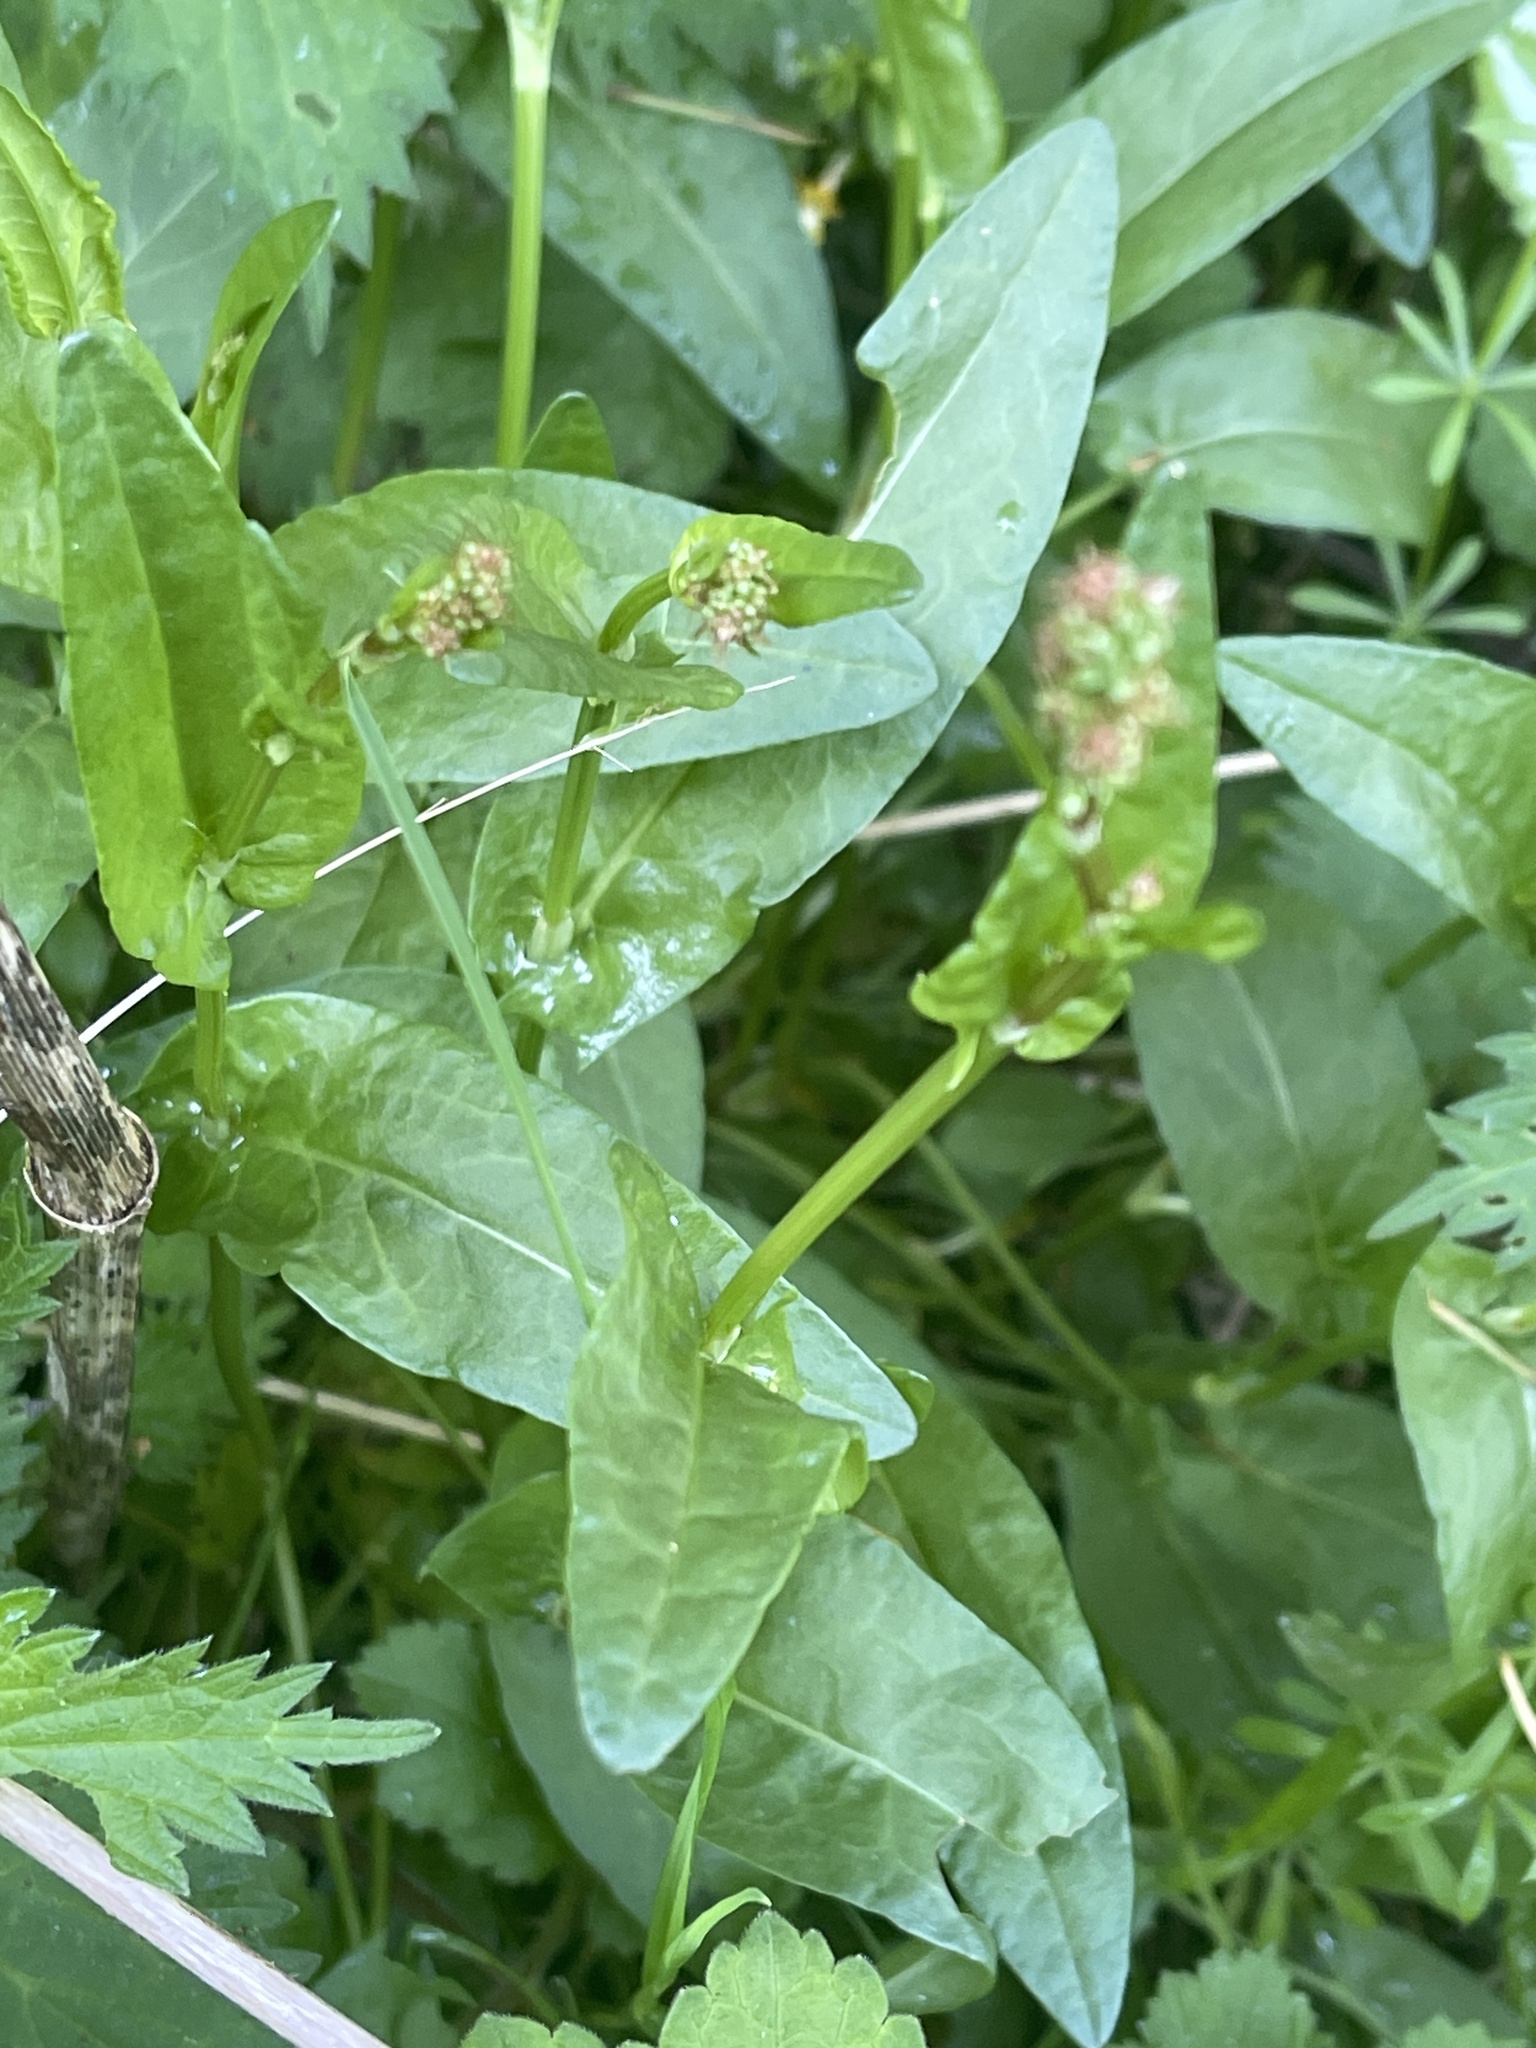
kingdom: Plantae
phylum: Tracheophyta
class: Magnoliopsida
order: Caryophyllales
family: Polygonaceae
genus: Rumex
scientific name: Rumex acetosa
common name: Garden sorrel
